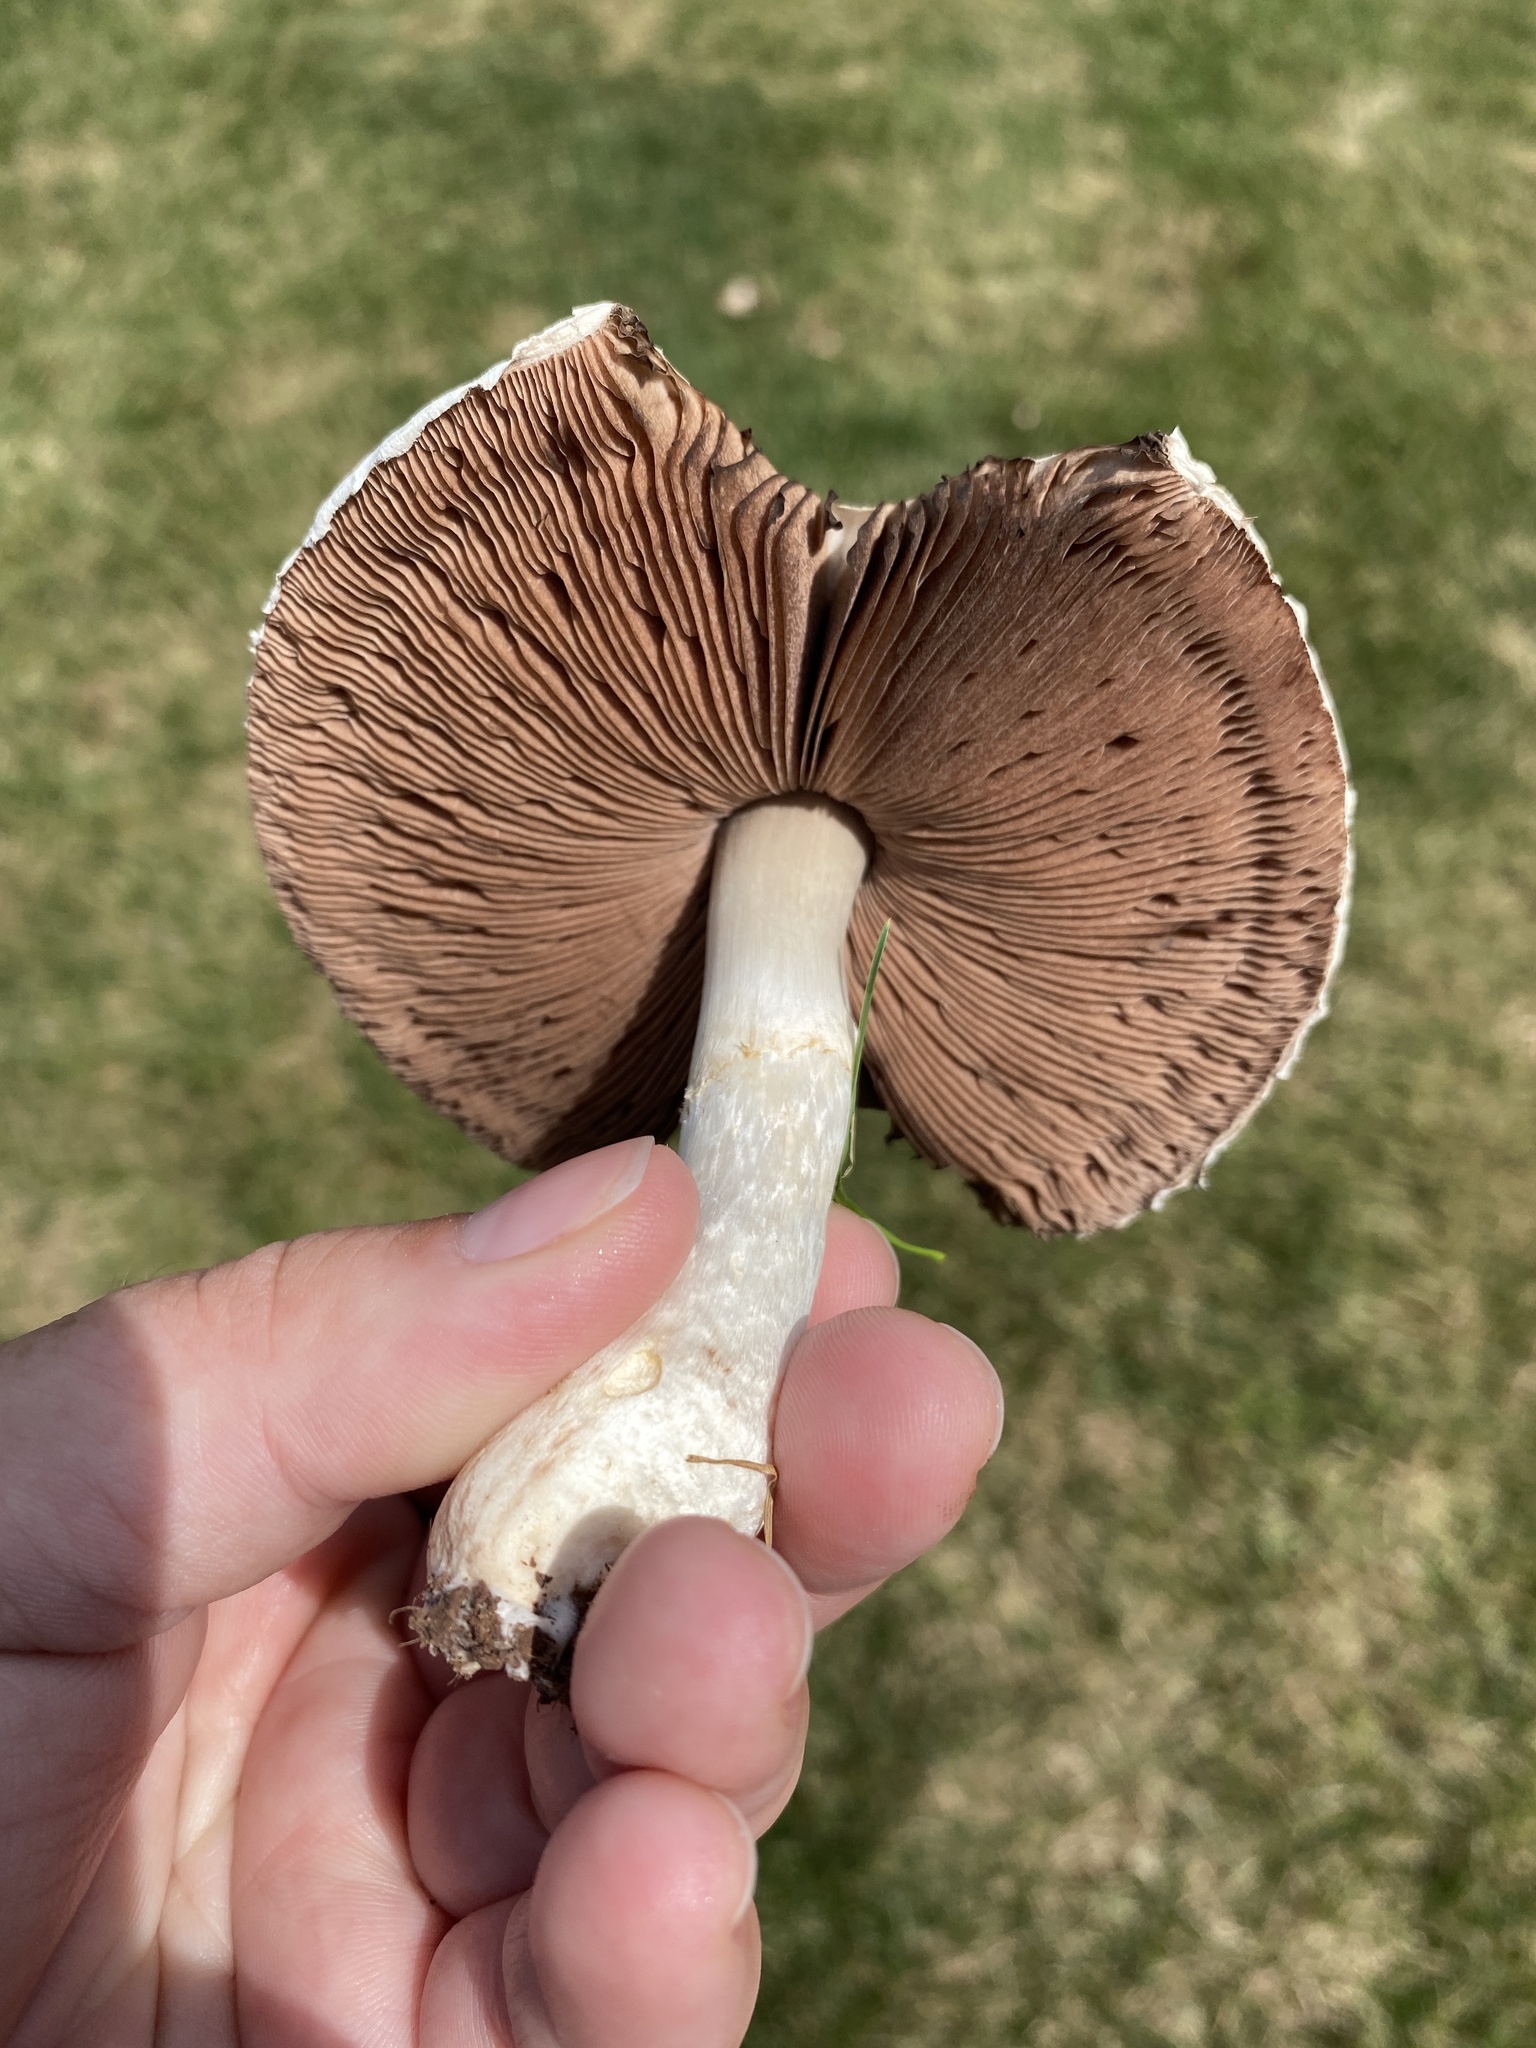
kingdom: Fungi
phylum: Basidiomycota
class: Agaricomycetes
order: Agaricales
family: Agaricaceae
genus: Agaricus
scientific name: Agaricus campestris
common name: Field mushroom
